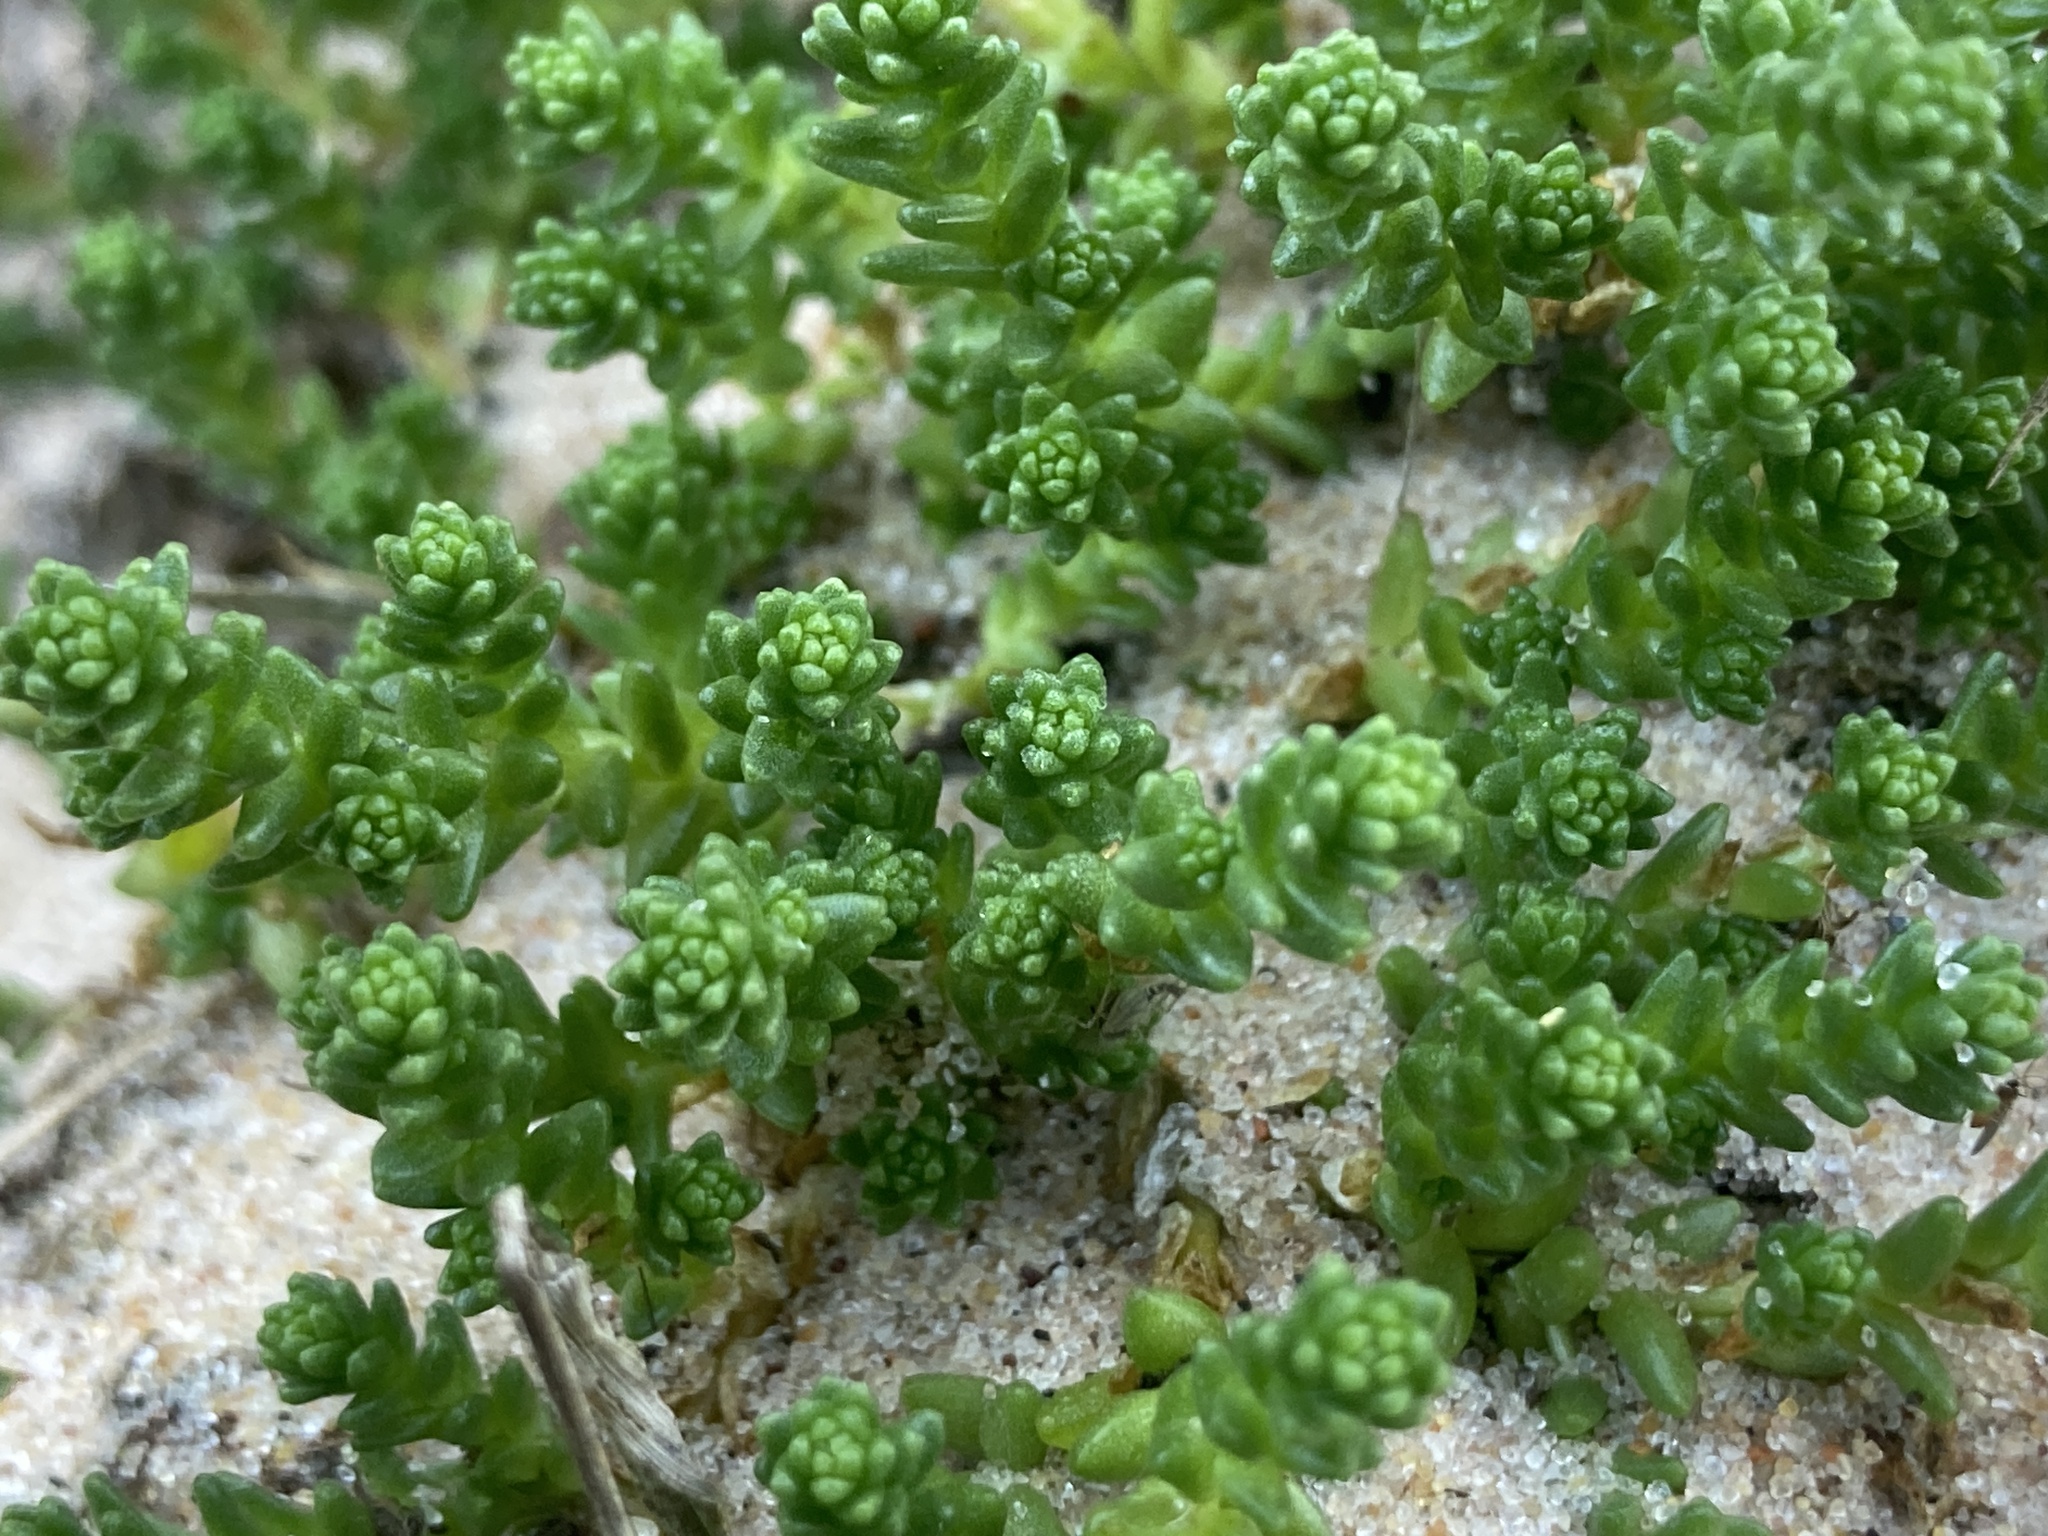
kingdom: Plantae
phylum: Tracheophyta
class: Magnoliopsida
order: Saxifragales
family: Crassulaceae
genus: Sedum
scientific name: Sedum acre
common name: Biting stonecrop
